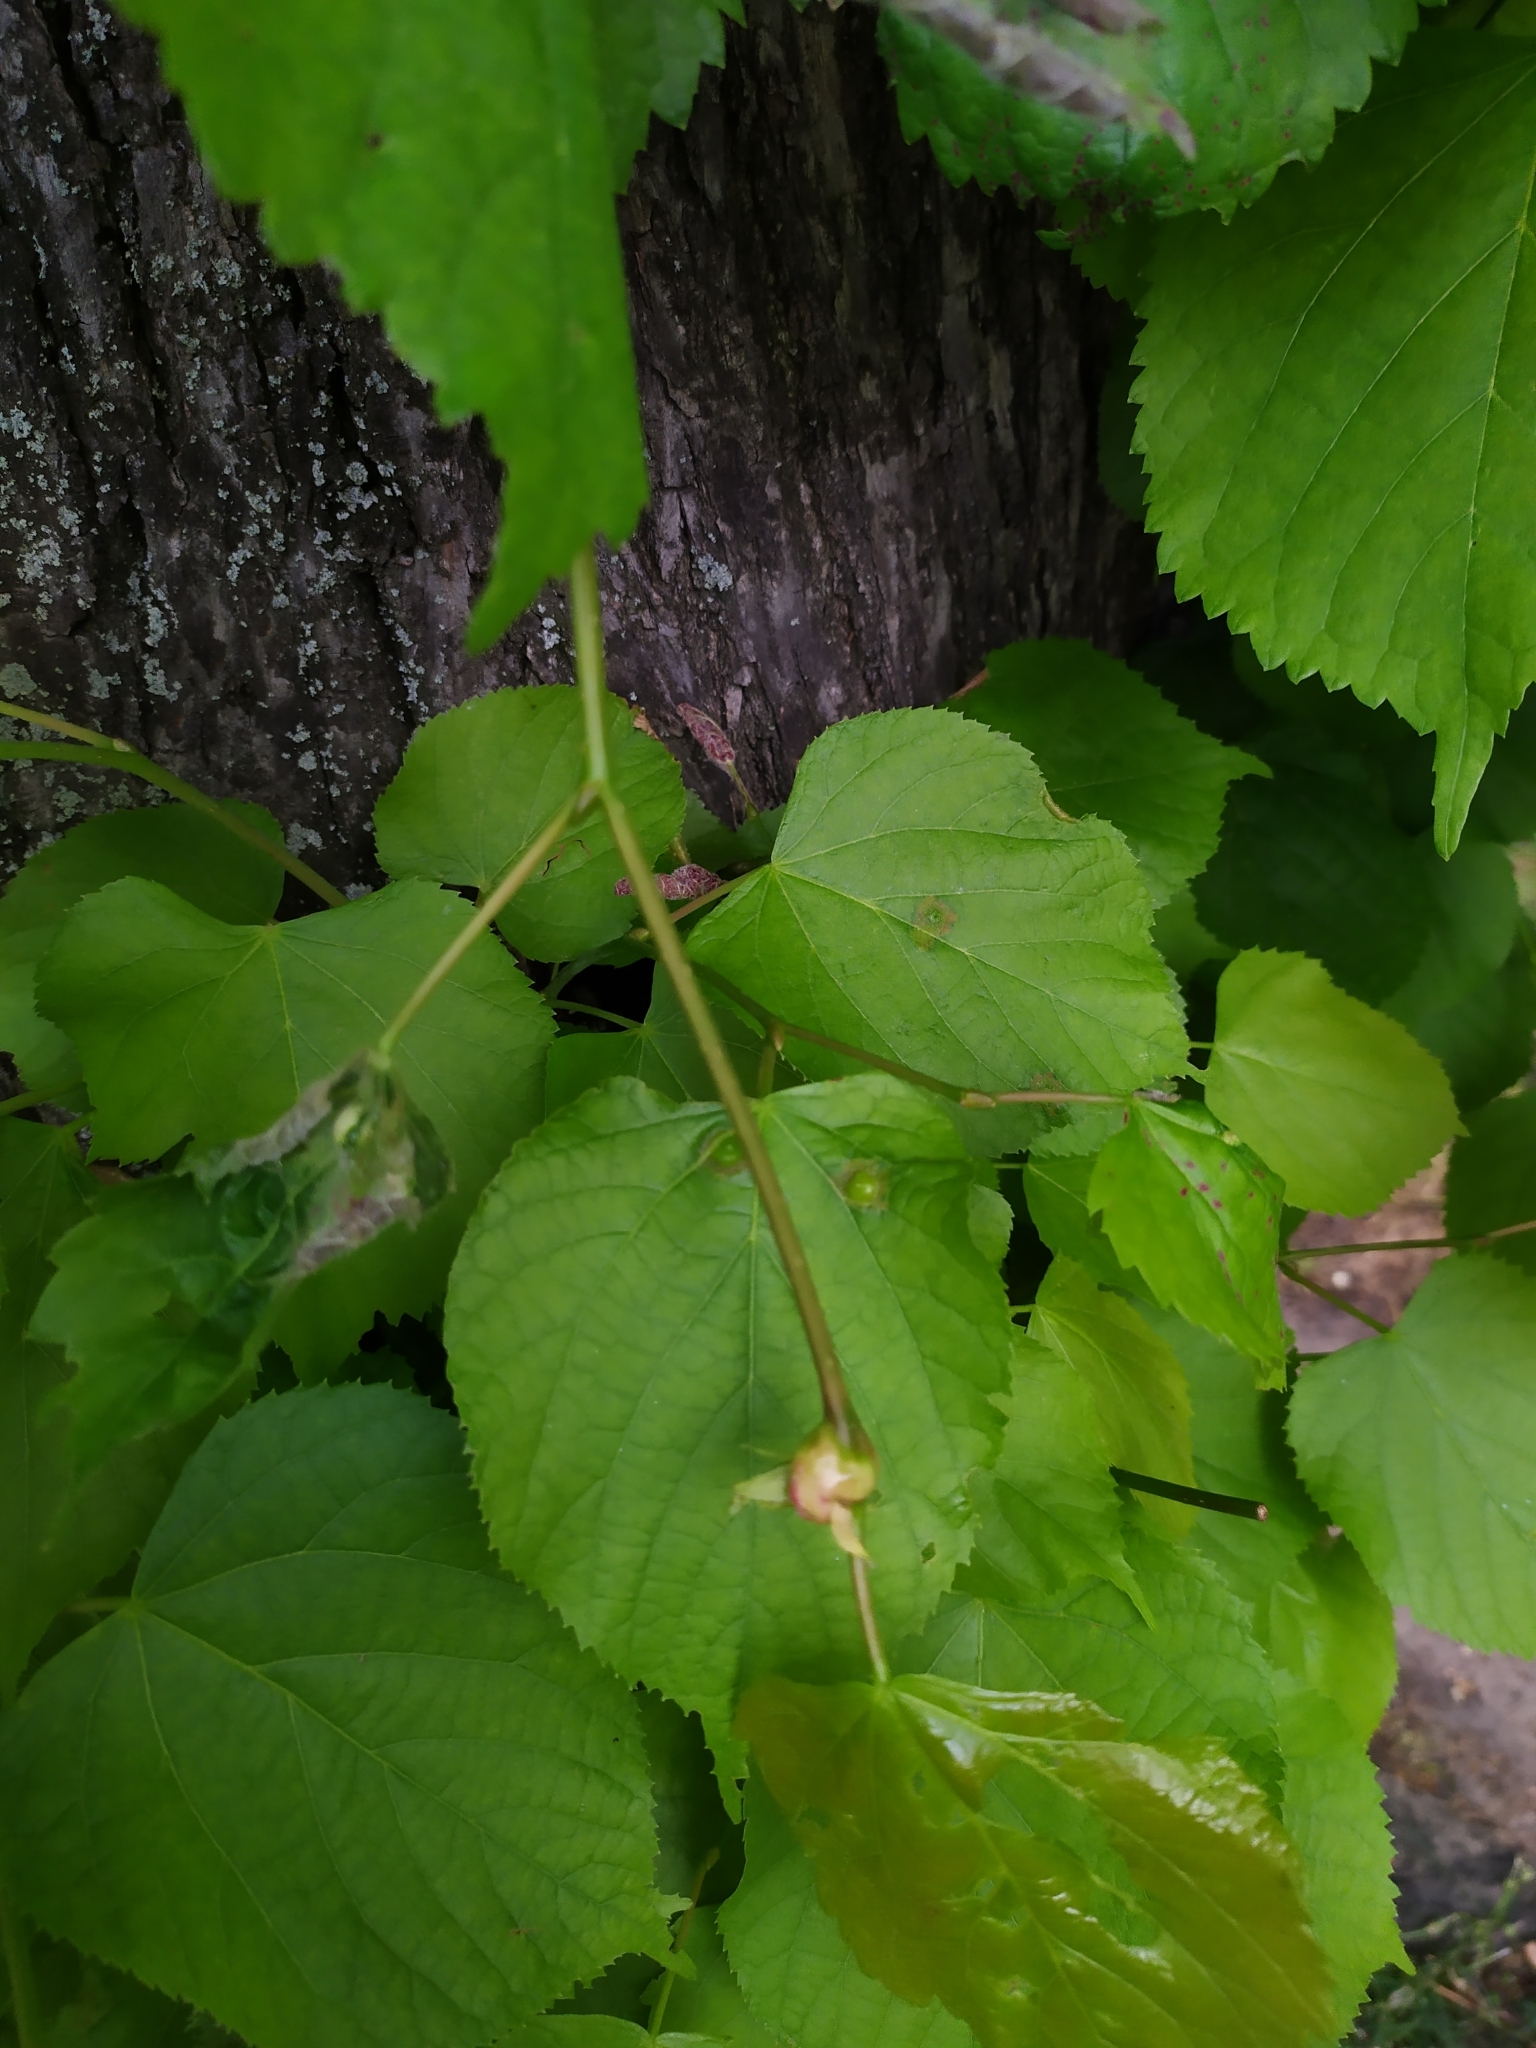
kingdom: Animalia
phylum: Arthropoda
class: Insecta
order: Diptera
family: Cecidomyiidae
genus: Didymomyia
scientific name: Didymomyia tiliacea
